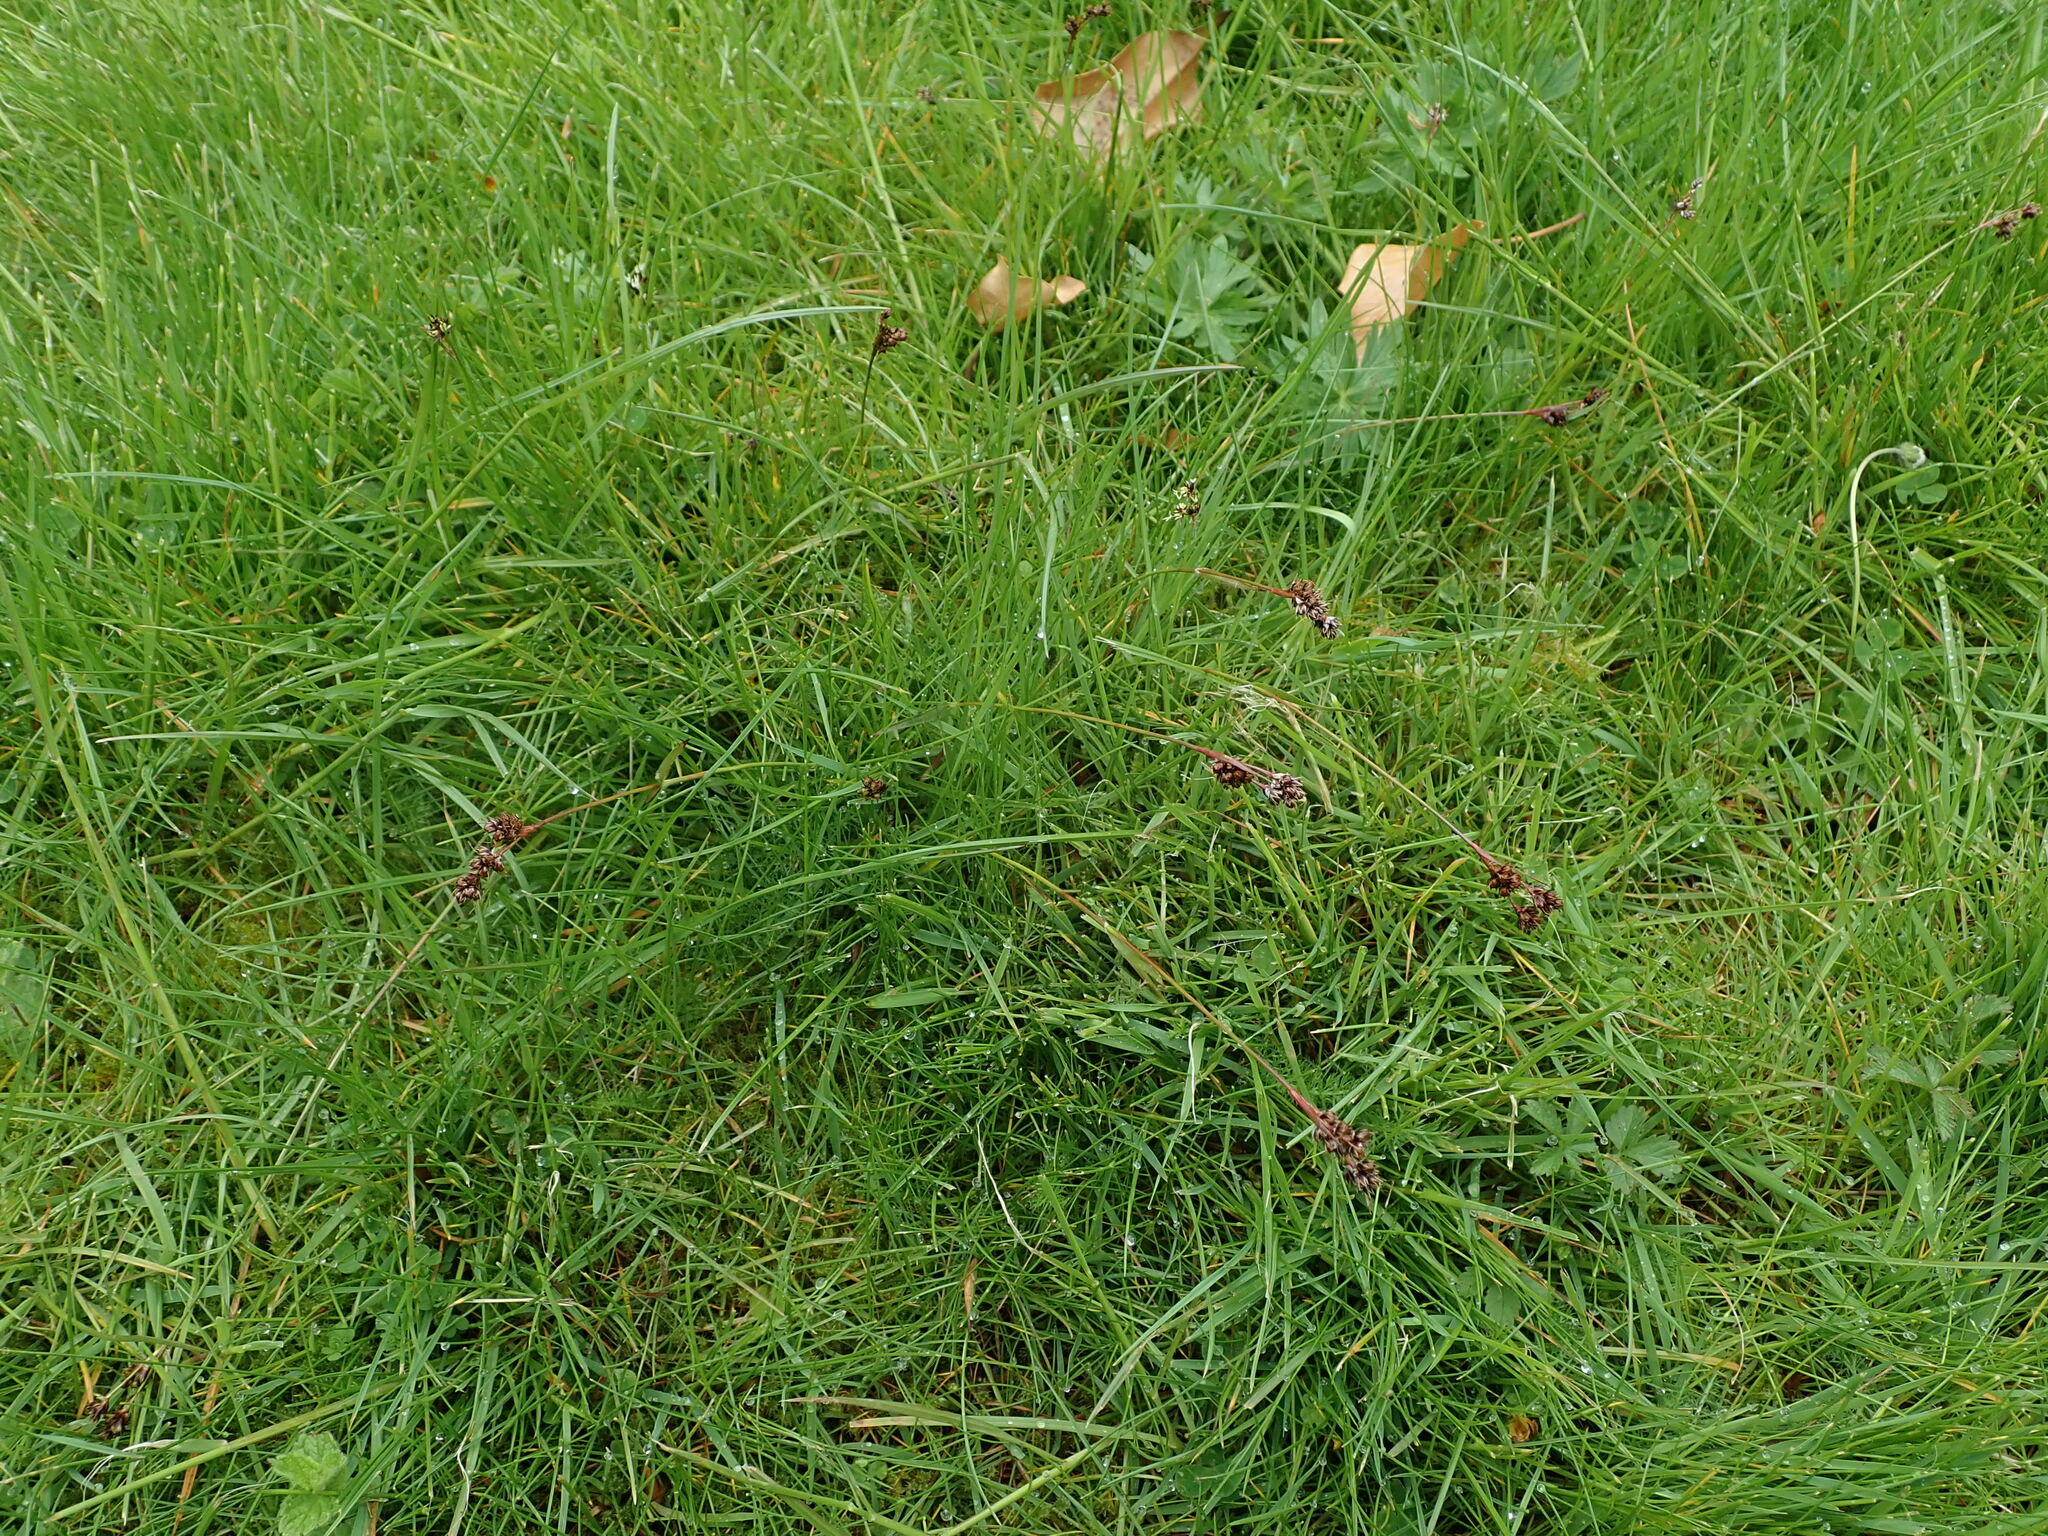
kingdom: Plantae
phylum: Tracheophyta
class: Liliopsida
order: Poales
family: Juncaceae
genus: Luzula
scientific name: Luzula campestris
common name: Field wood-rush
